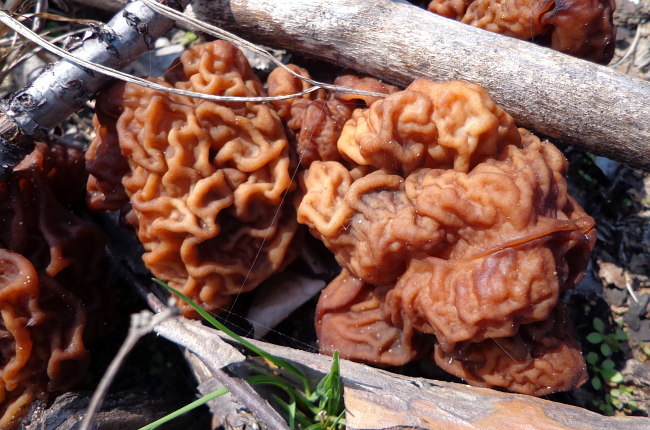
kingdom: Fungi
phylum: Ascomycota
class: Pezizomycetes
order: Pezizales
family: Discinaceae
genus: Gyromitra
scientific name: Gyromitra esculenta
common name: False morel
